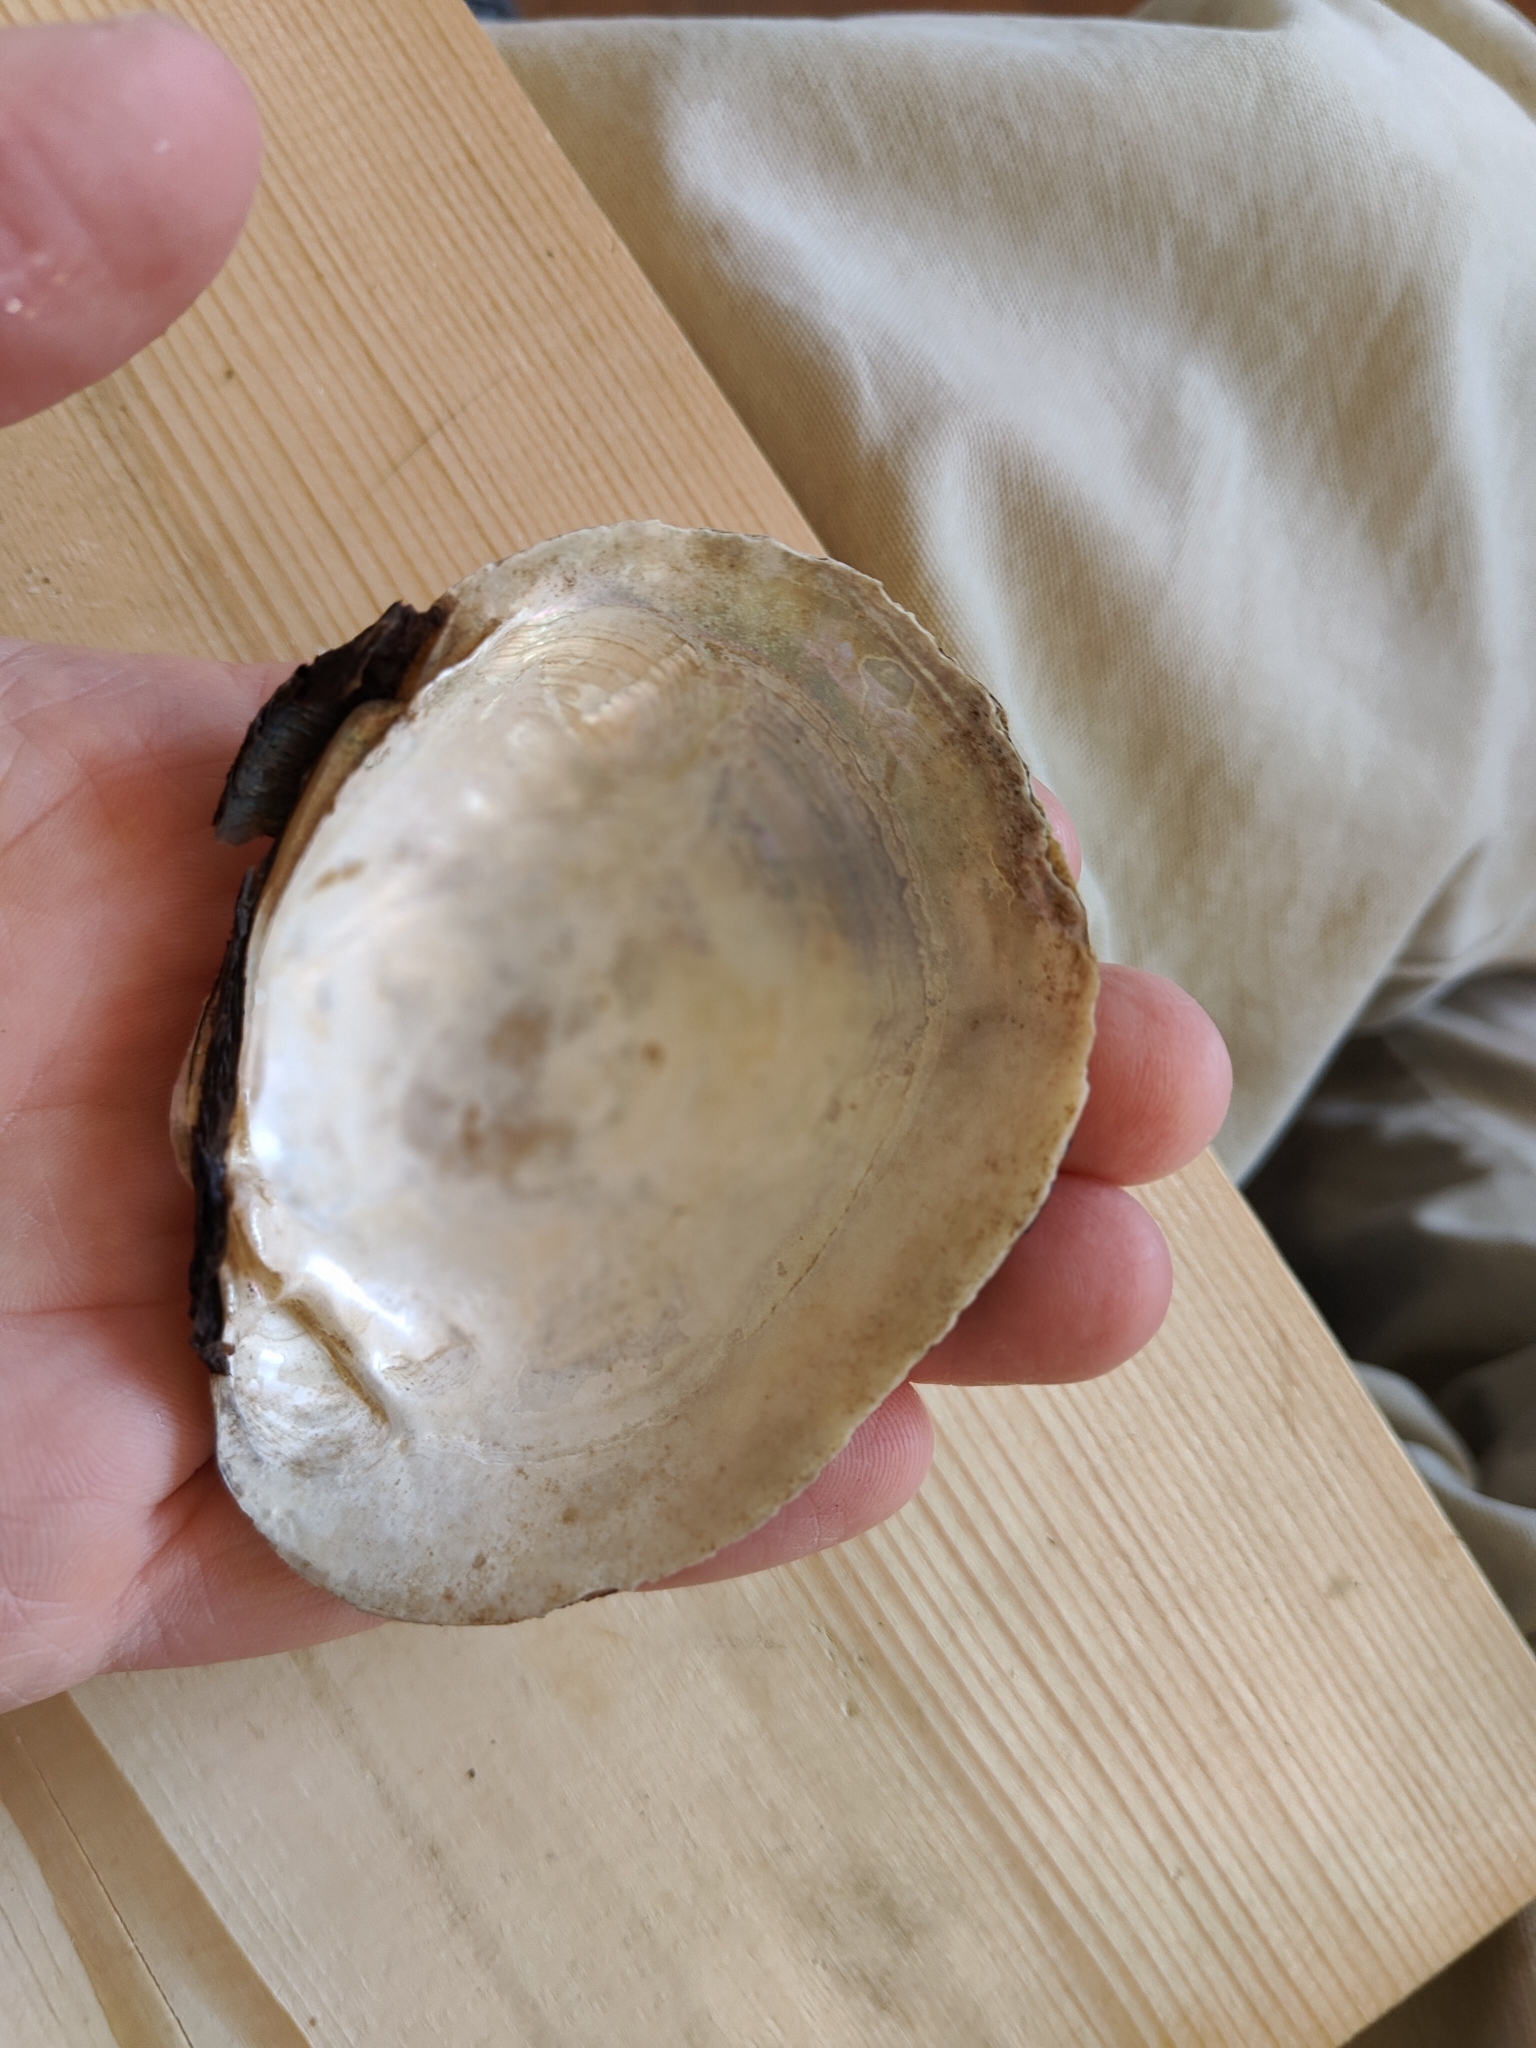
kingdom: Animalia
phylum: Mollusca
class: Bivalvia
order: Unionida
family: Unionidae
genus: Lampsilis
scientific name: Lampsilis cardium
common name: Plain pocketbook
